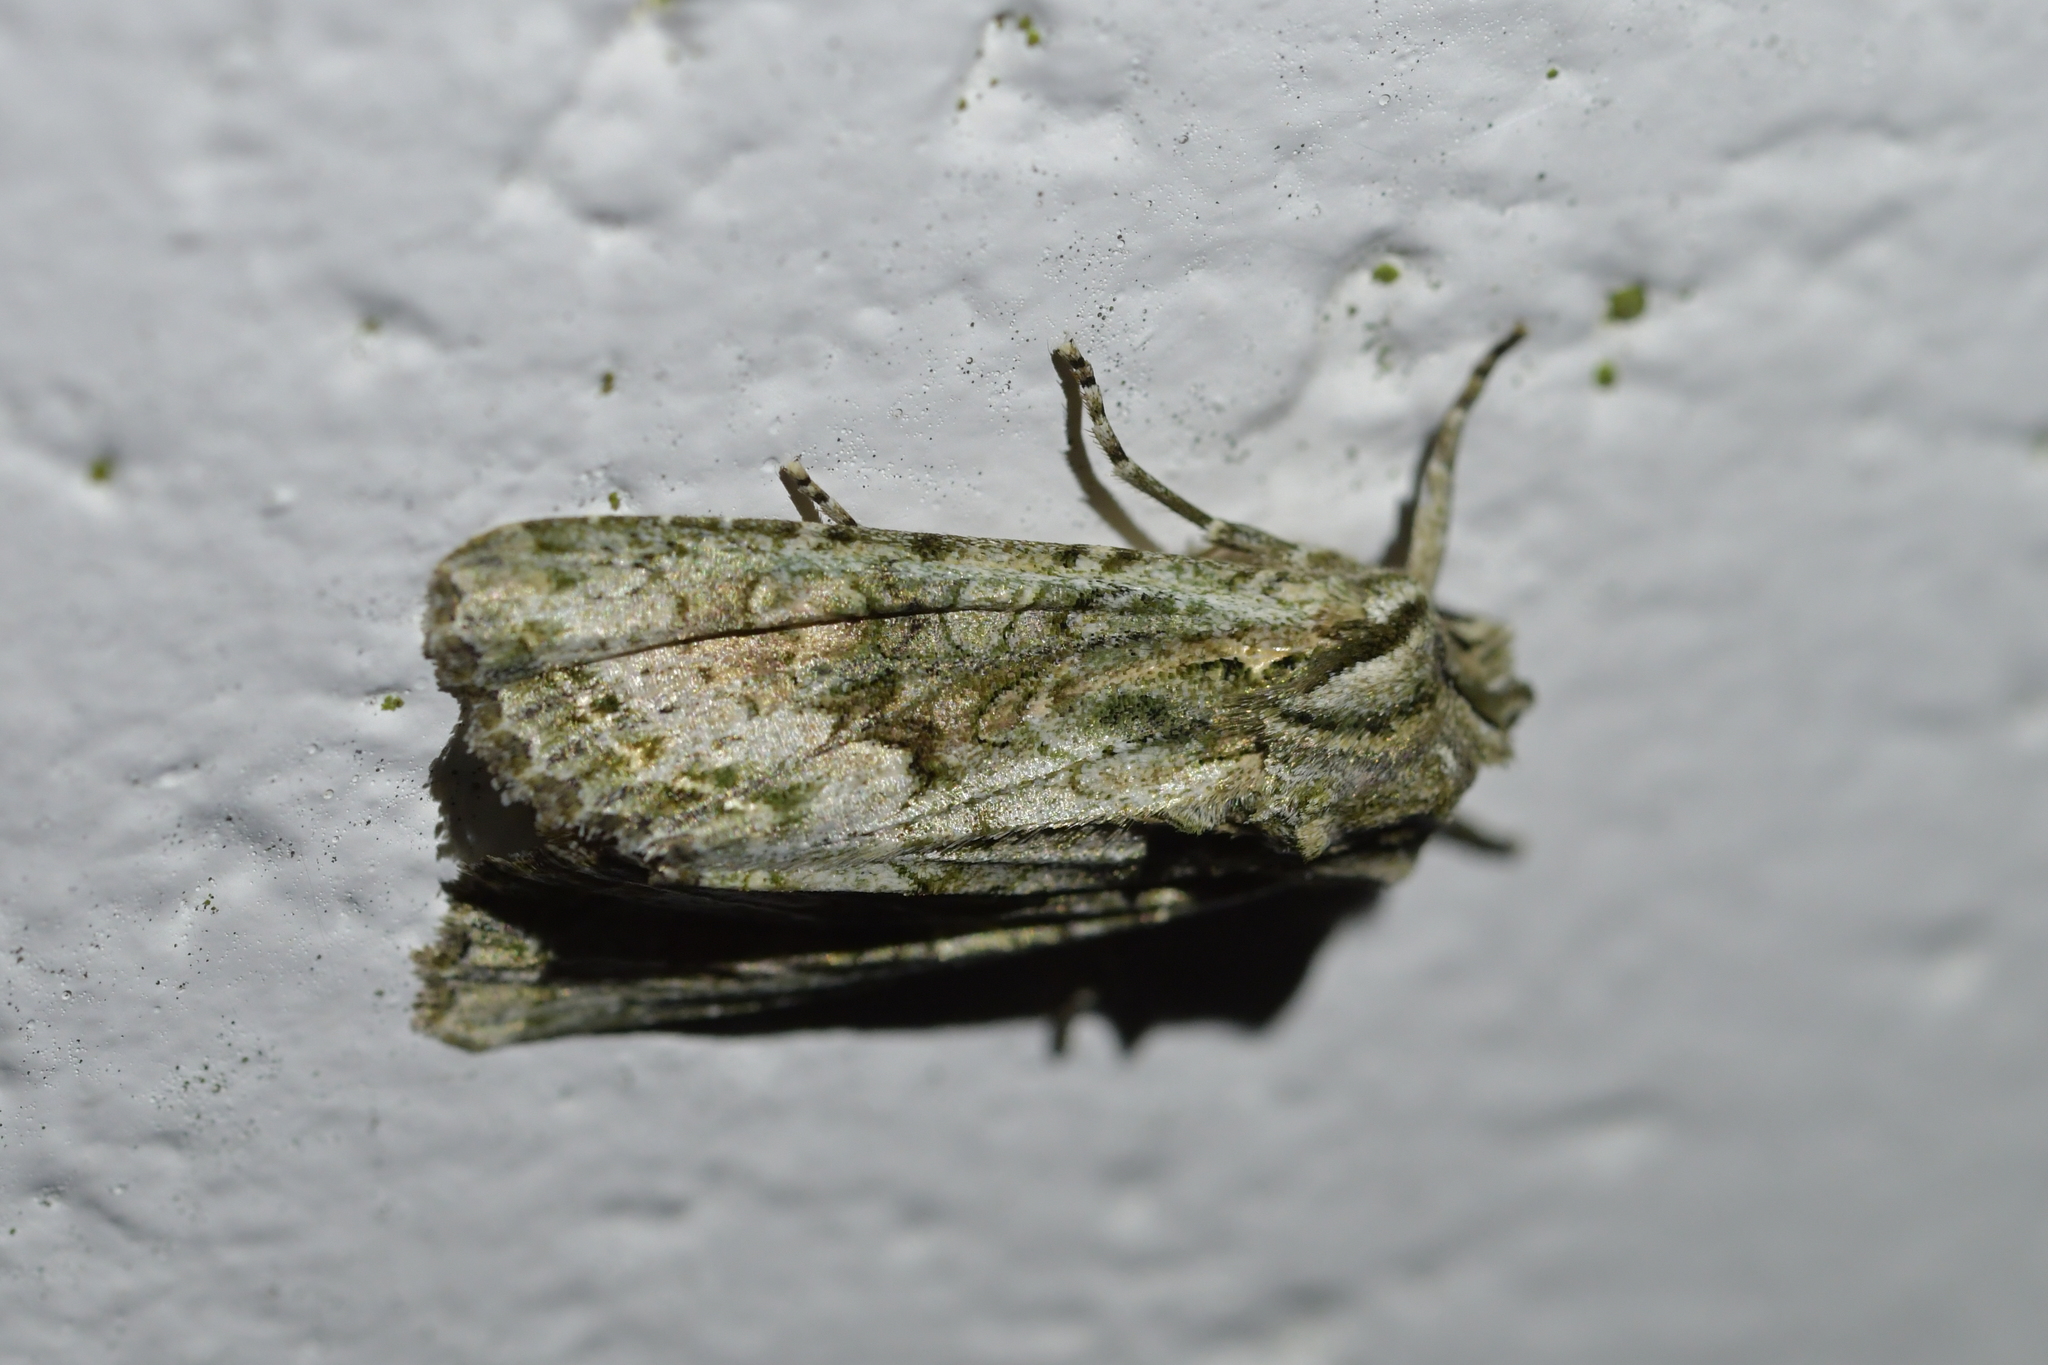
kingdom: Animalia
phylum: Arthropoda
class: Insecta
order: Lepidoptera
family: Noctuidae
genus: Ichneutica
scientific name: Ichneutica mutans
